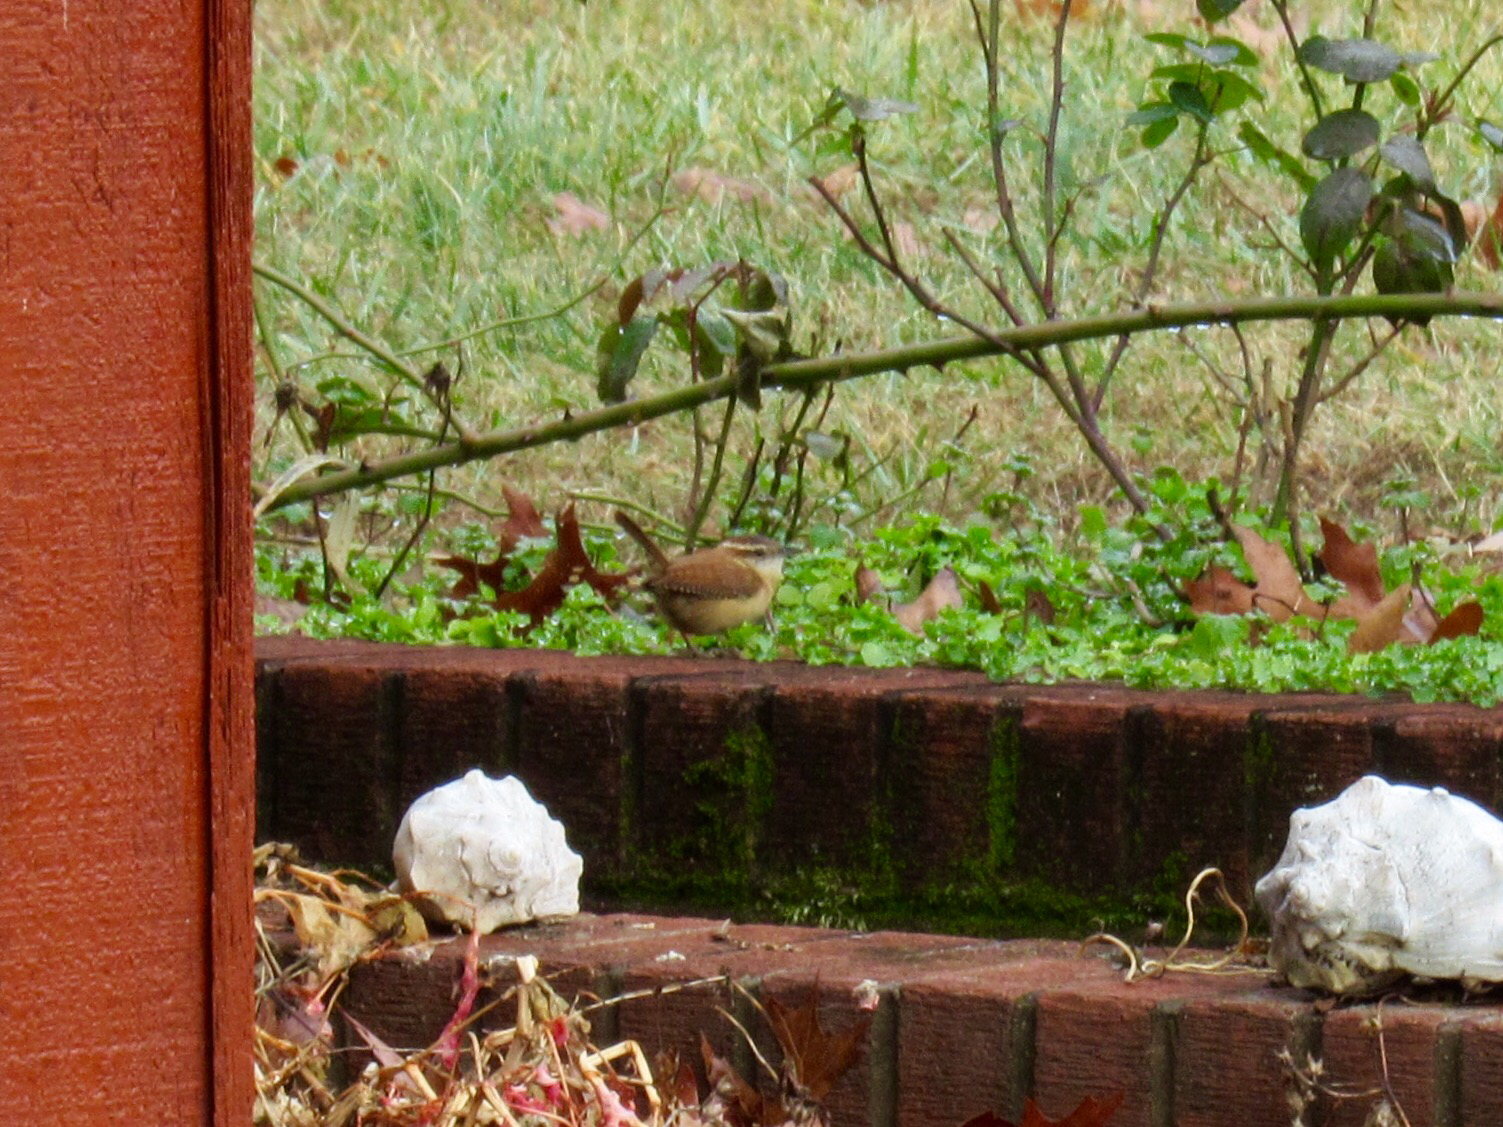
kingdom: Animalia
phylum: Chordata
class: Aves
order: Passeriformes
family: Troglodytidae
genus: Thryothorus
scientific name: Thryothorus ludovicianus
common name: Carolina wren
